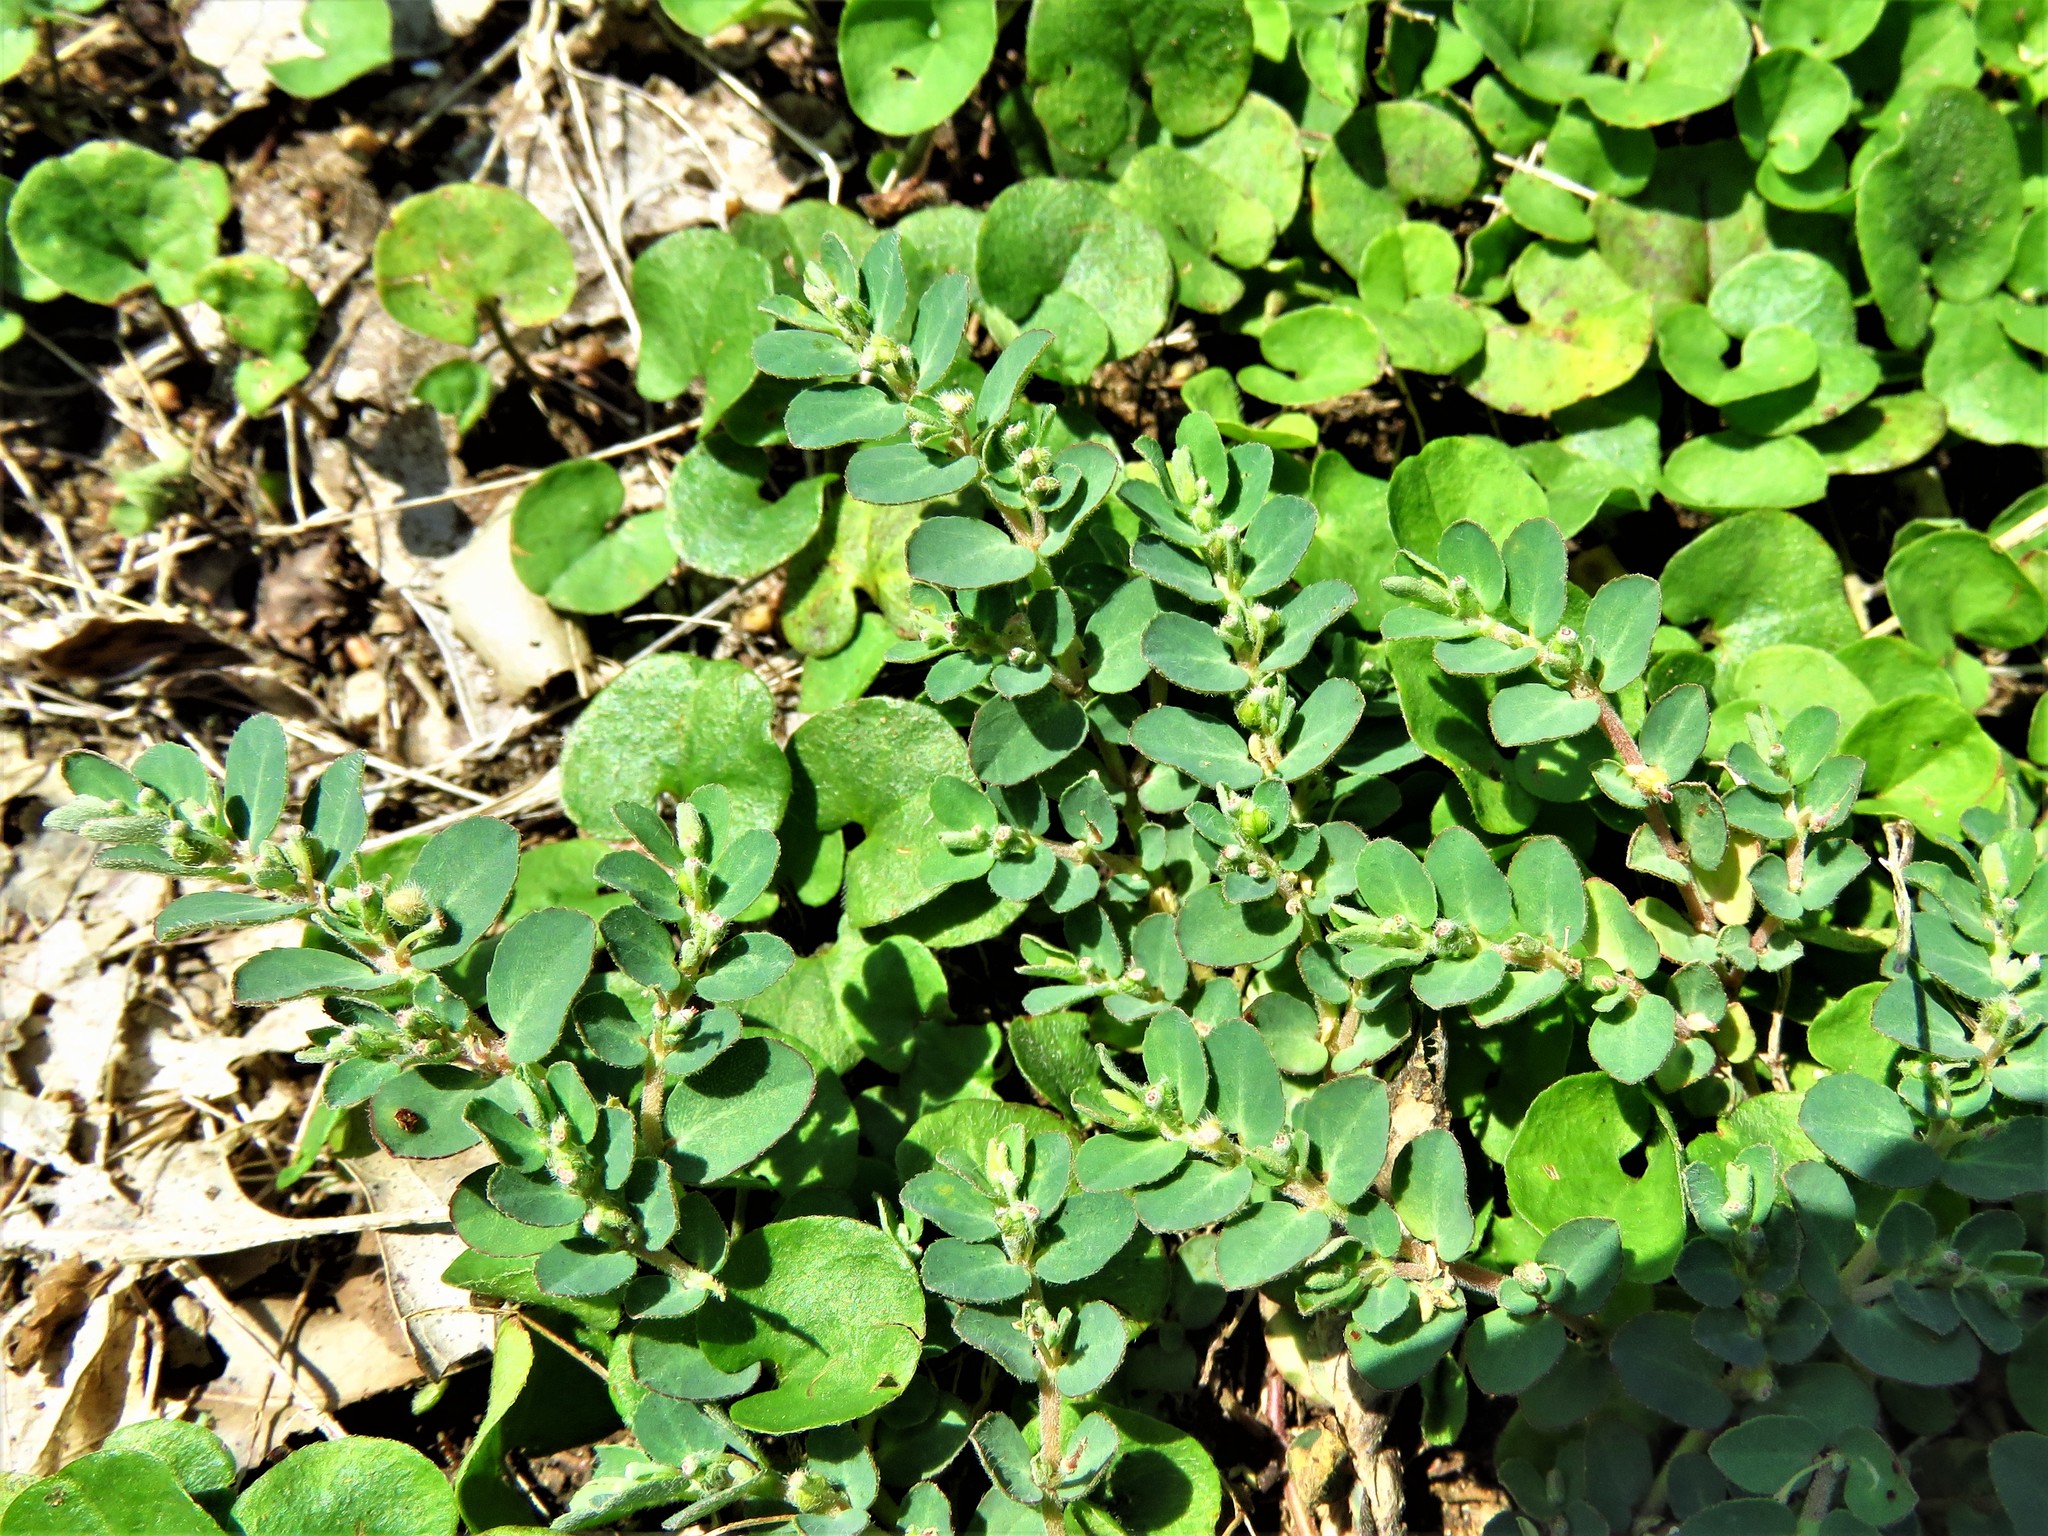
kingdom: Plantae
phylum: Tracheophyta
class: Magnoliopsida
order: Malpighiales
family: Euphorbiaceae
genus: Euphorbia
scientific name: Euphorbia prostrata
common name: Prostrate sandmat
